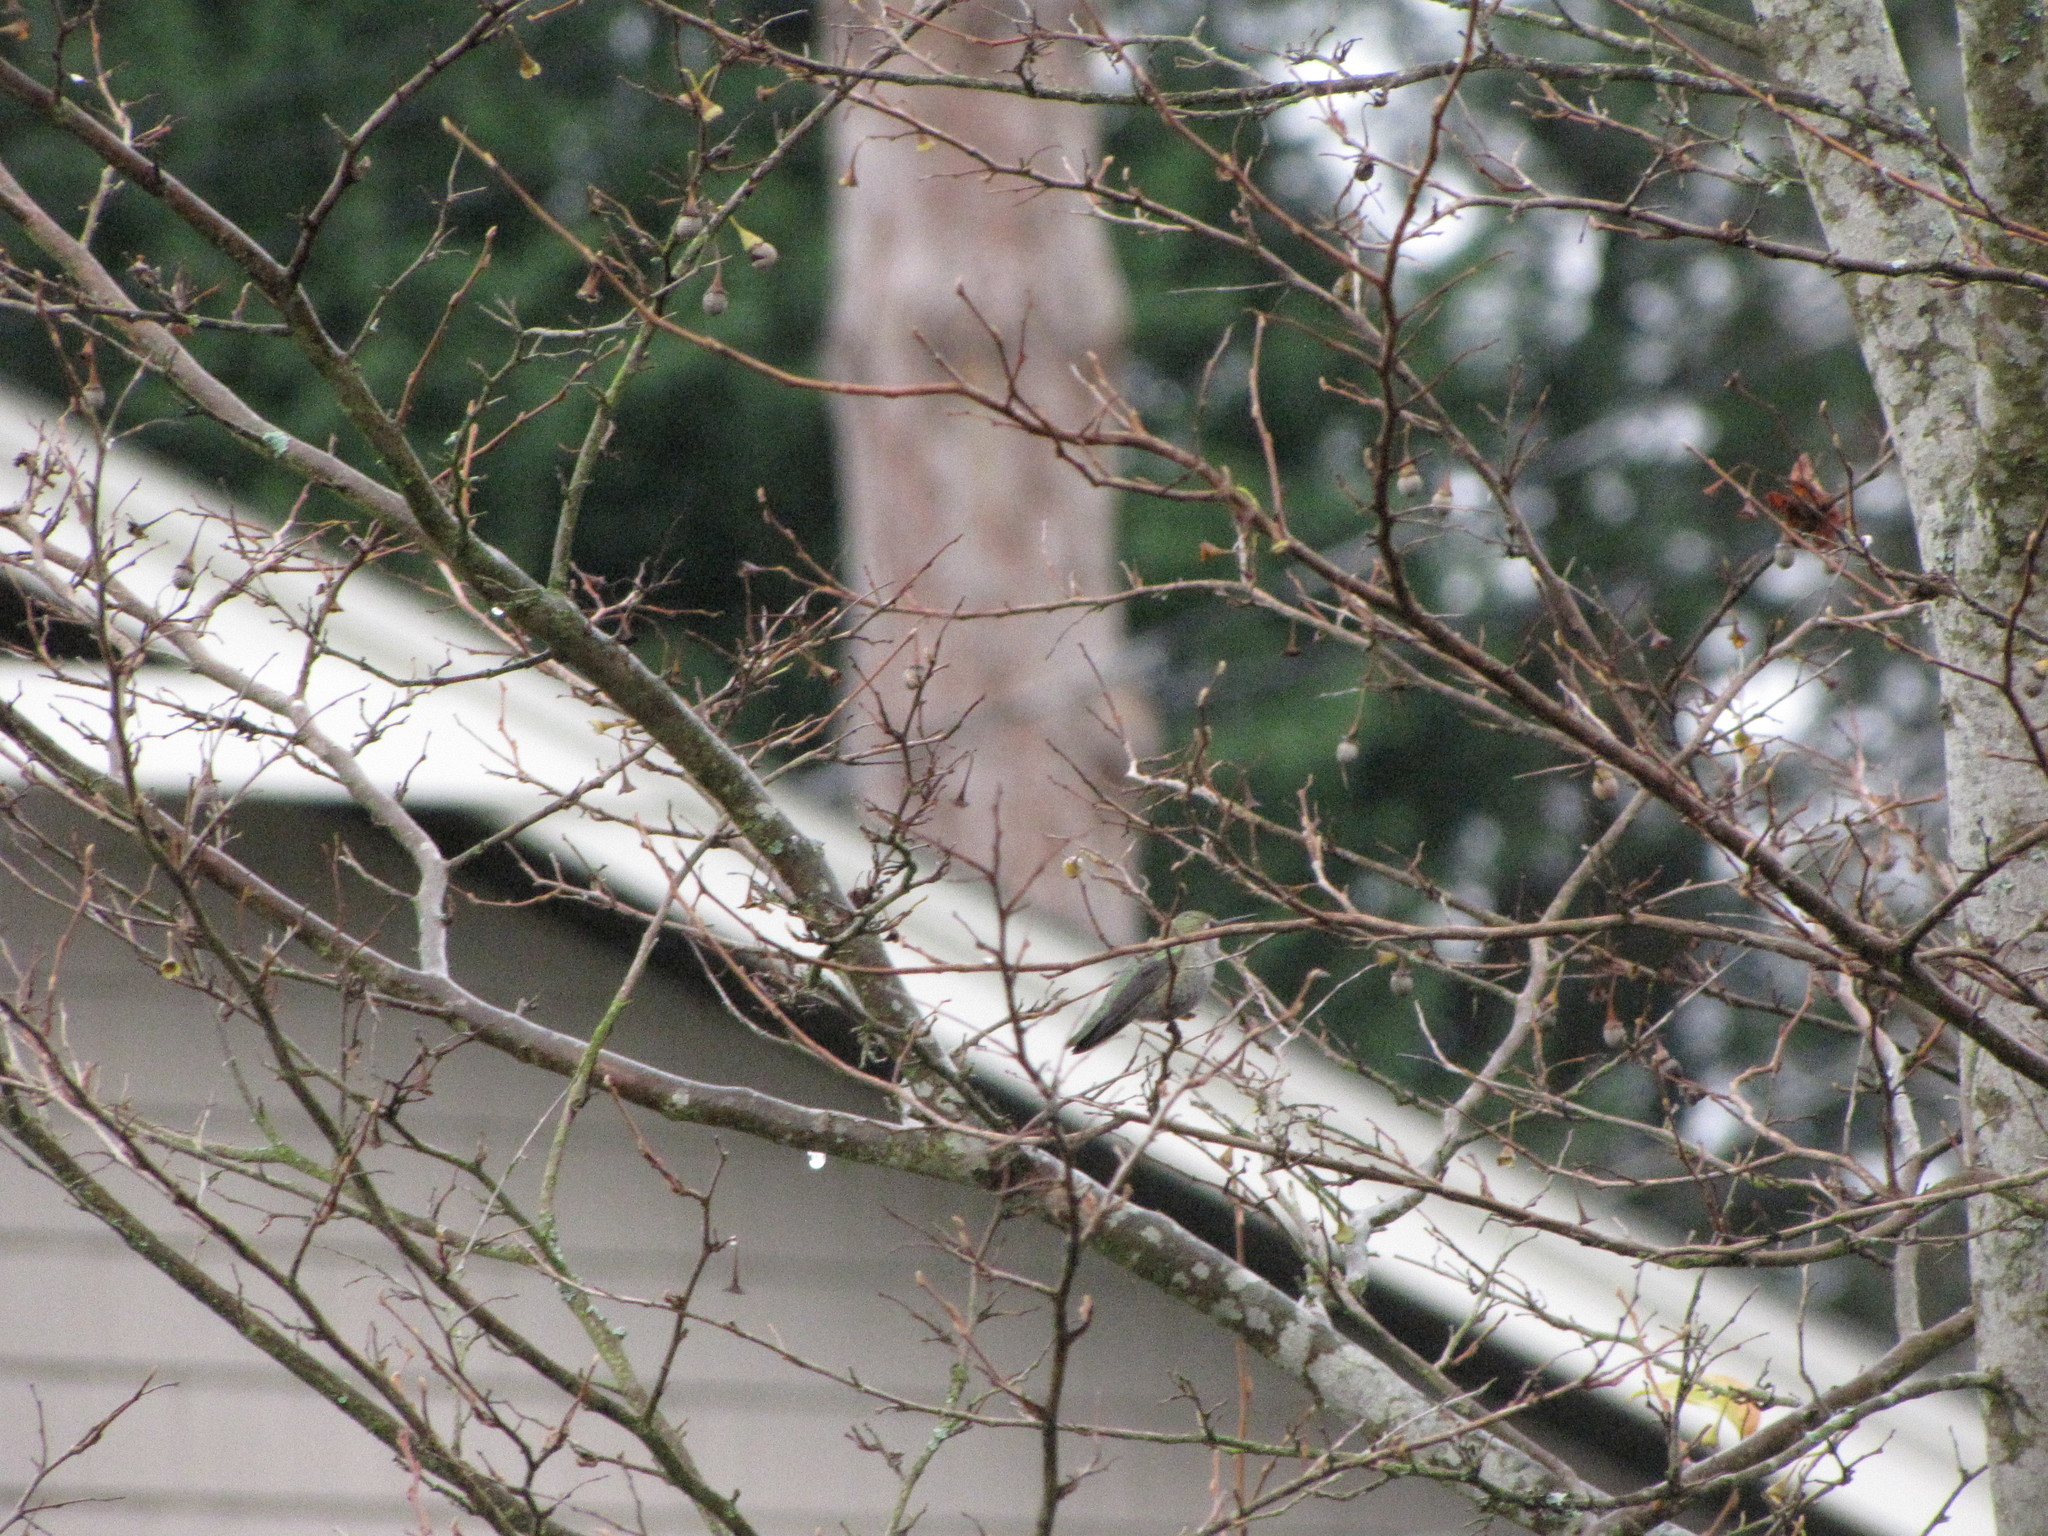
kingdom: Animalia
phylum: Chordata
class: Aves
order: Apodiformes
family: Trochilidae
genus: Calypte
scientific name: Calypte anna
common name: Anna's hummingbird
